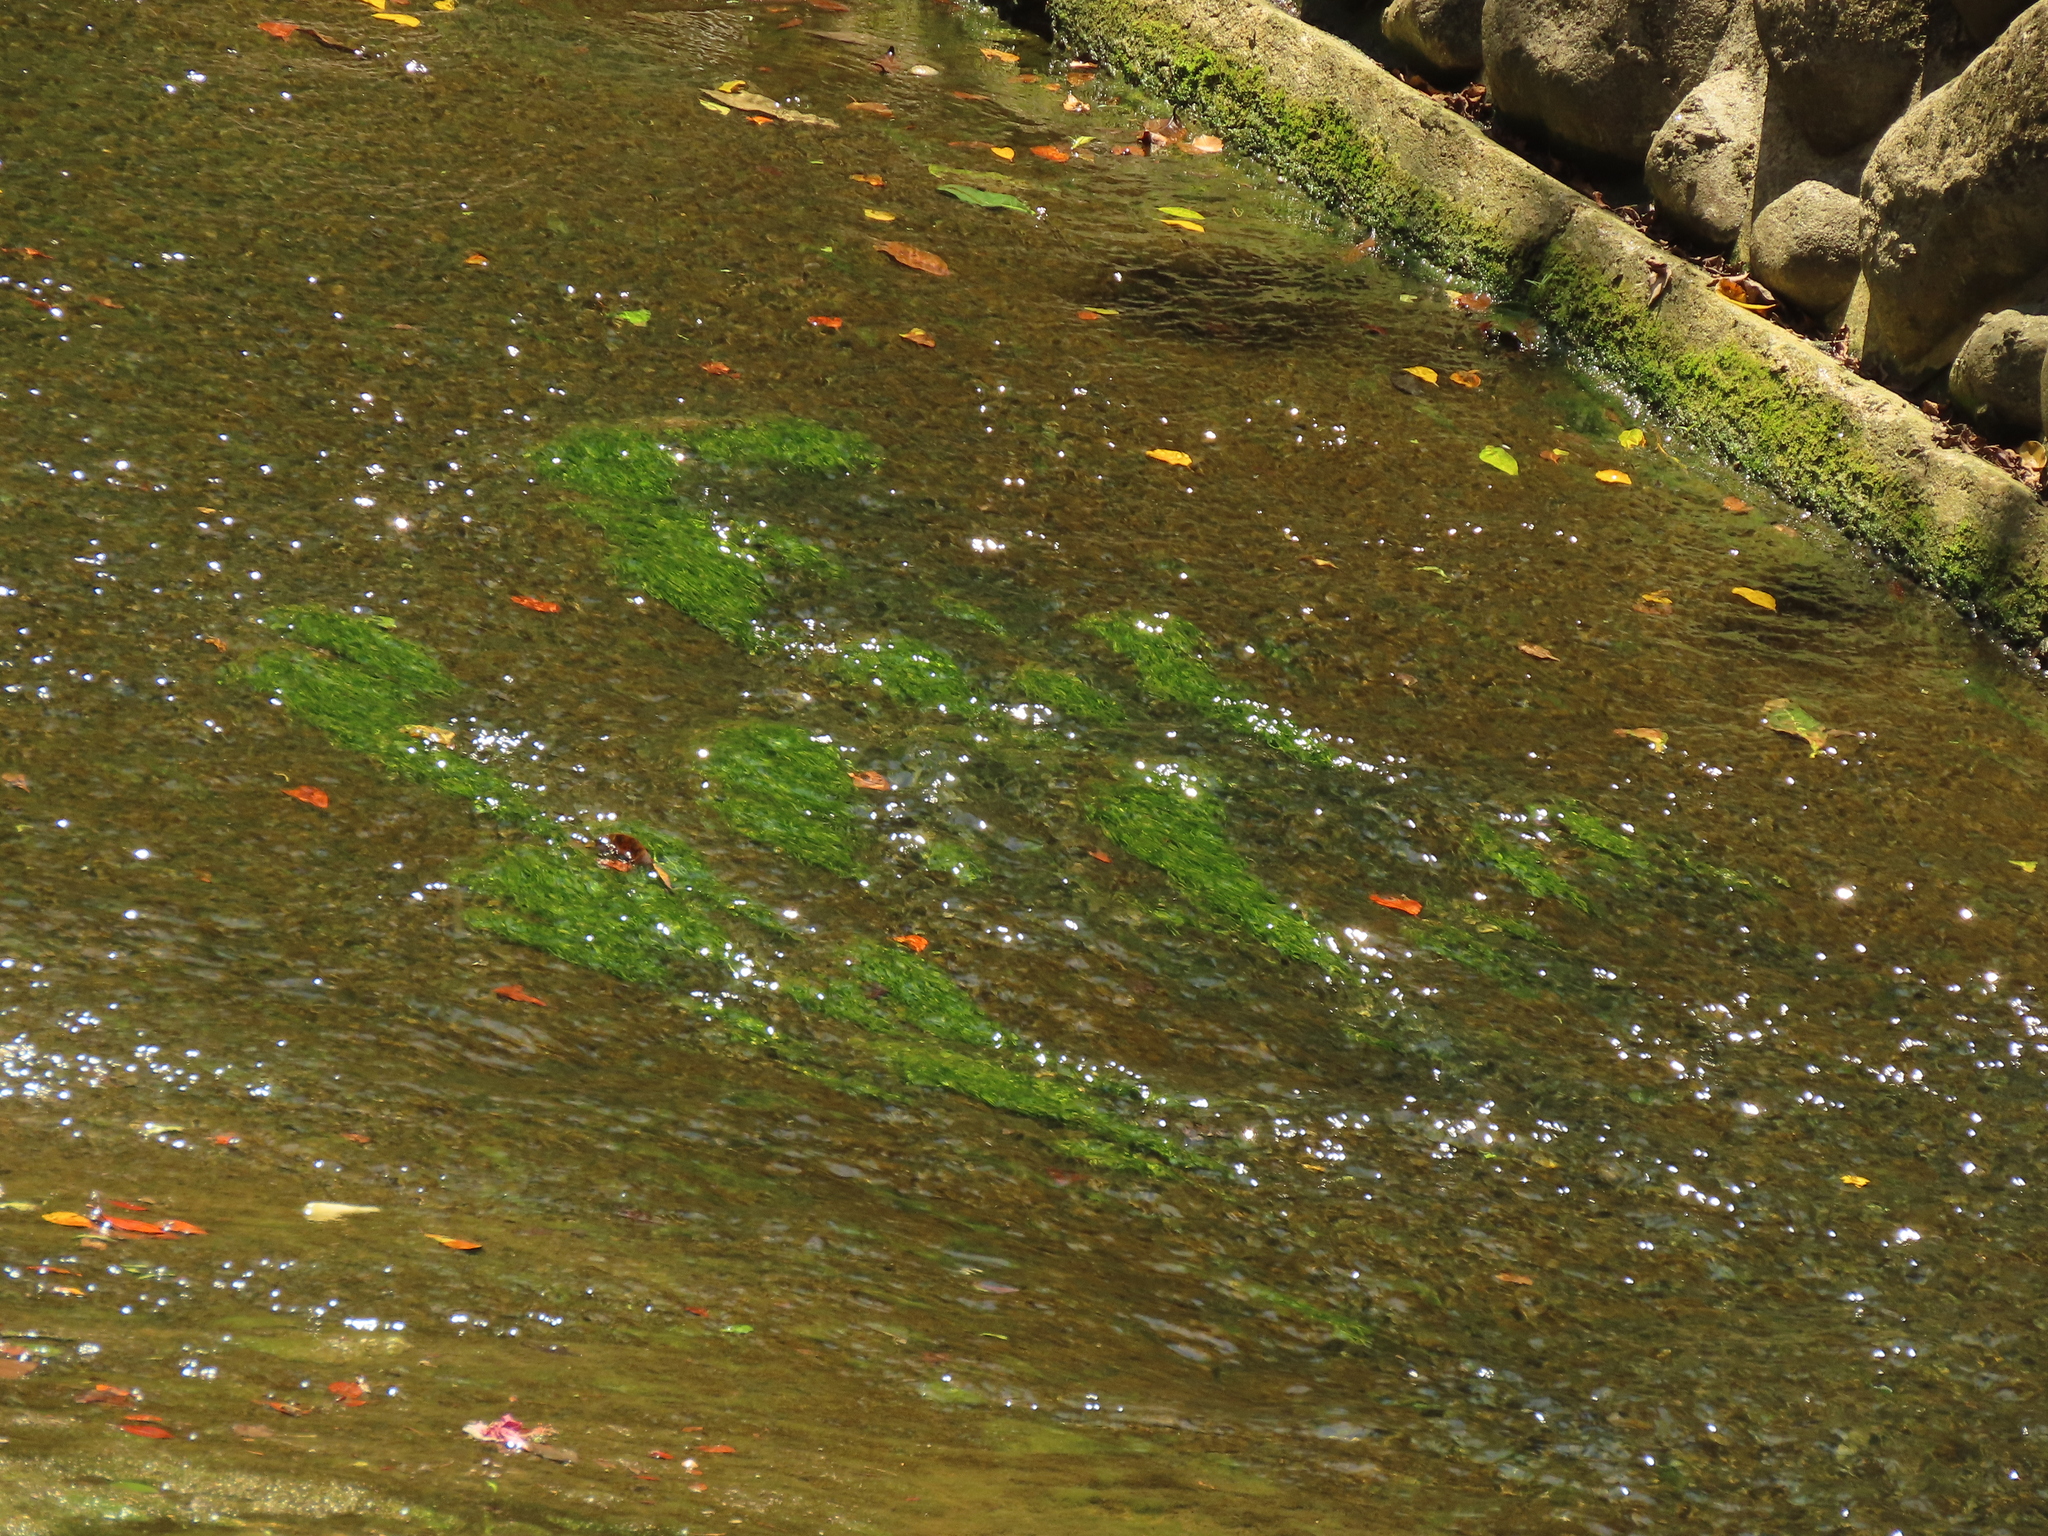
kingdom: Plantae
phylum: Tracheophyta
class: Liliopsida
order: Alismatales
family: Potamogetonaceae
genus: Potamogeton
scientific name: Potamogeton pusillus
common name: Lesser pondweed
